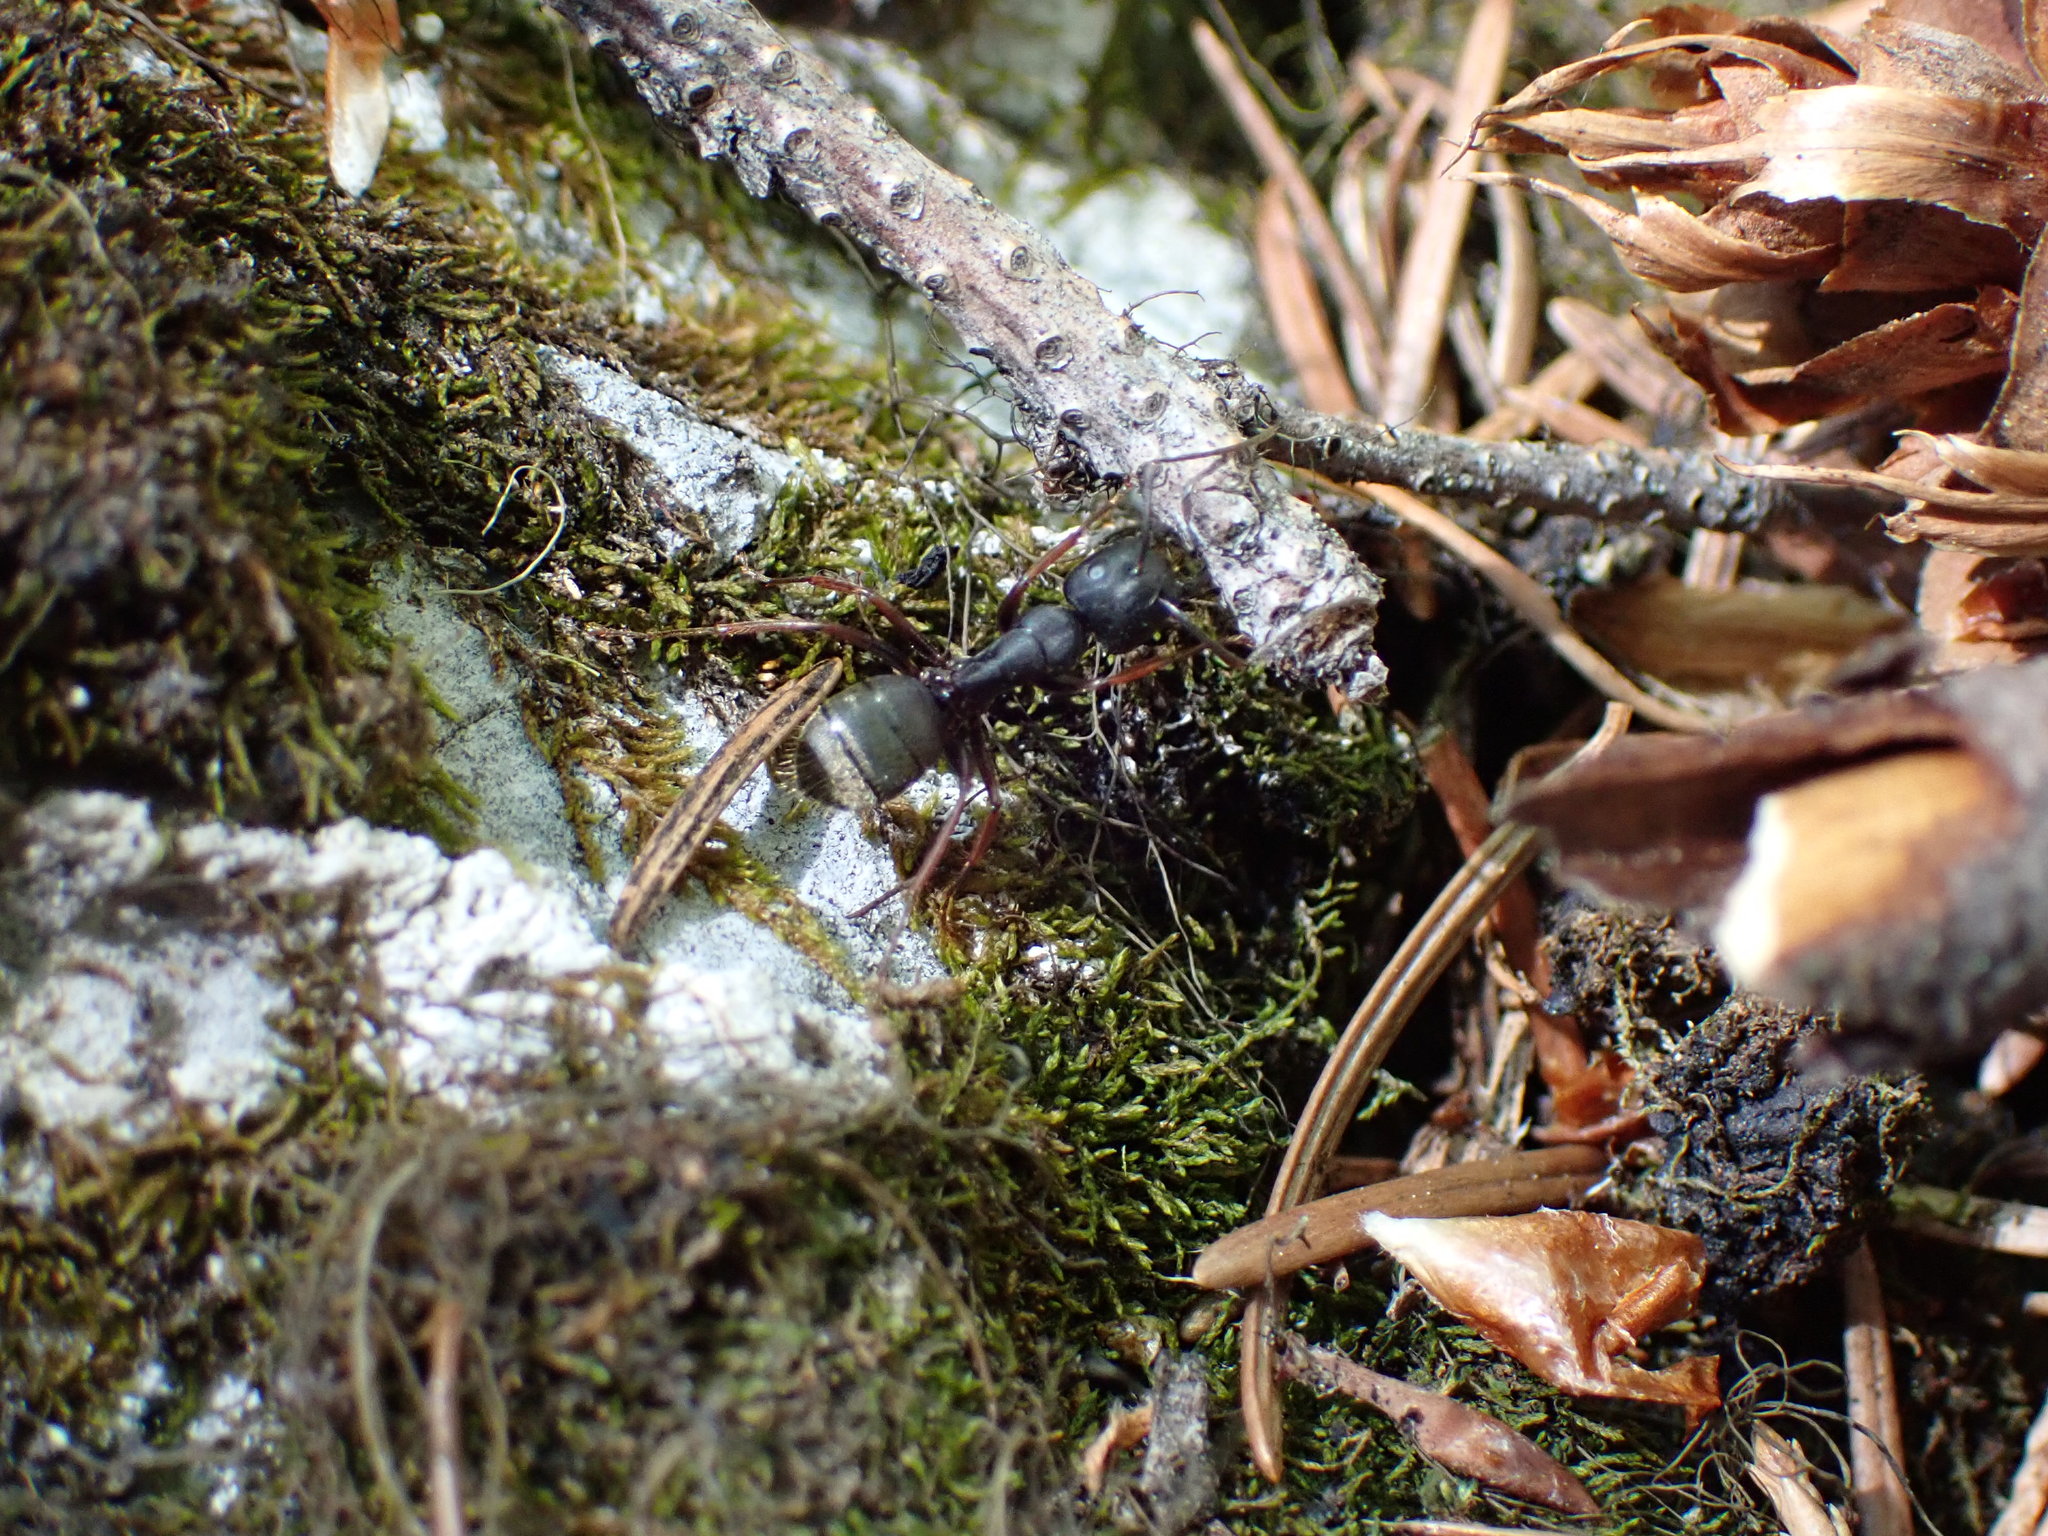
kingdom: Animalia
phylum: Arthropoda
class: Insecta
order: Hymenoptera
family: Formicidae
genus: Camponotus
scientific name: Camponotus modoc
